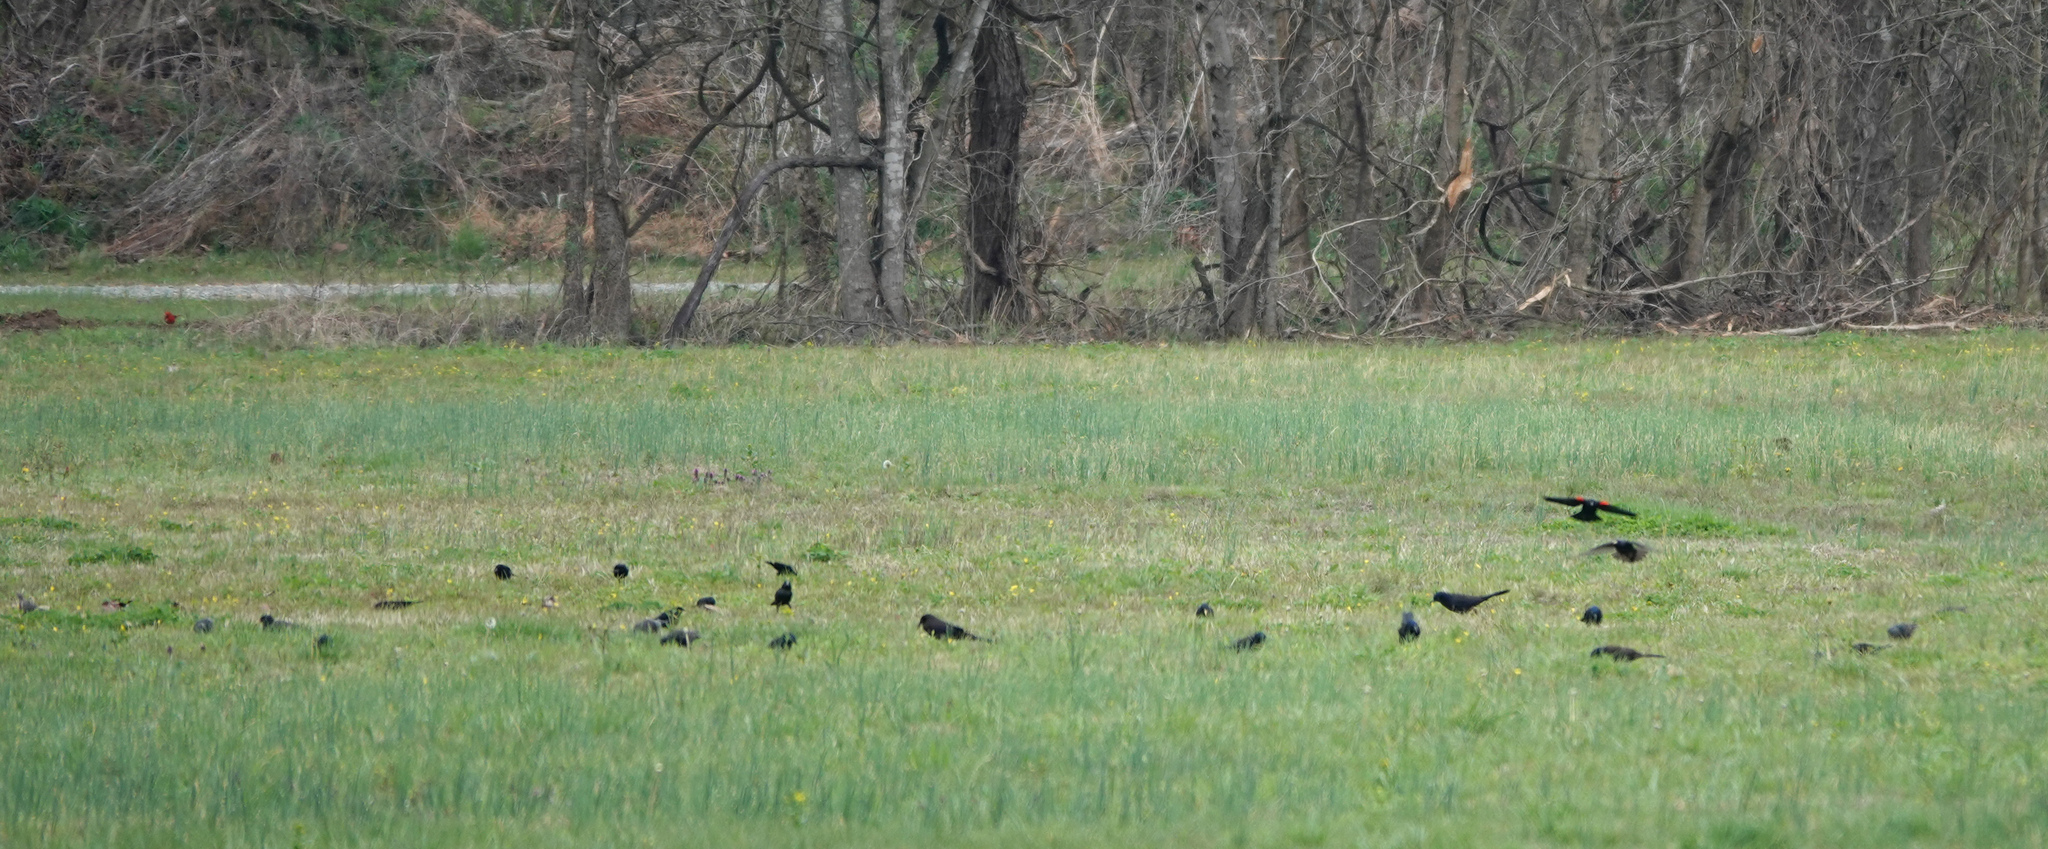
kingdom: Animalia
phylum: Chordata
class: Aves
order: Passeriformes
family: Icteridae
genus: Agelaius
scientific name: Agelaius phoeniceus
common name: Red-winged blackbird
